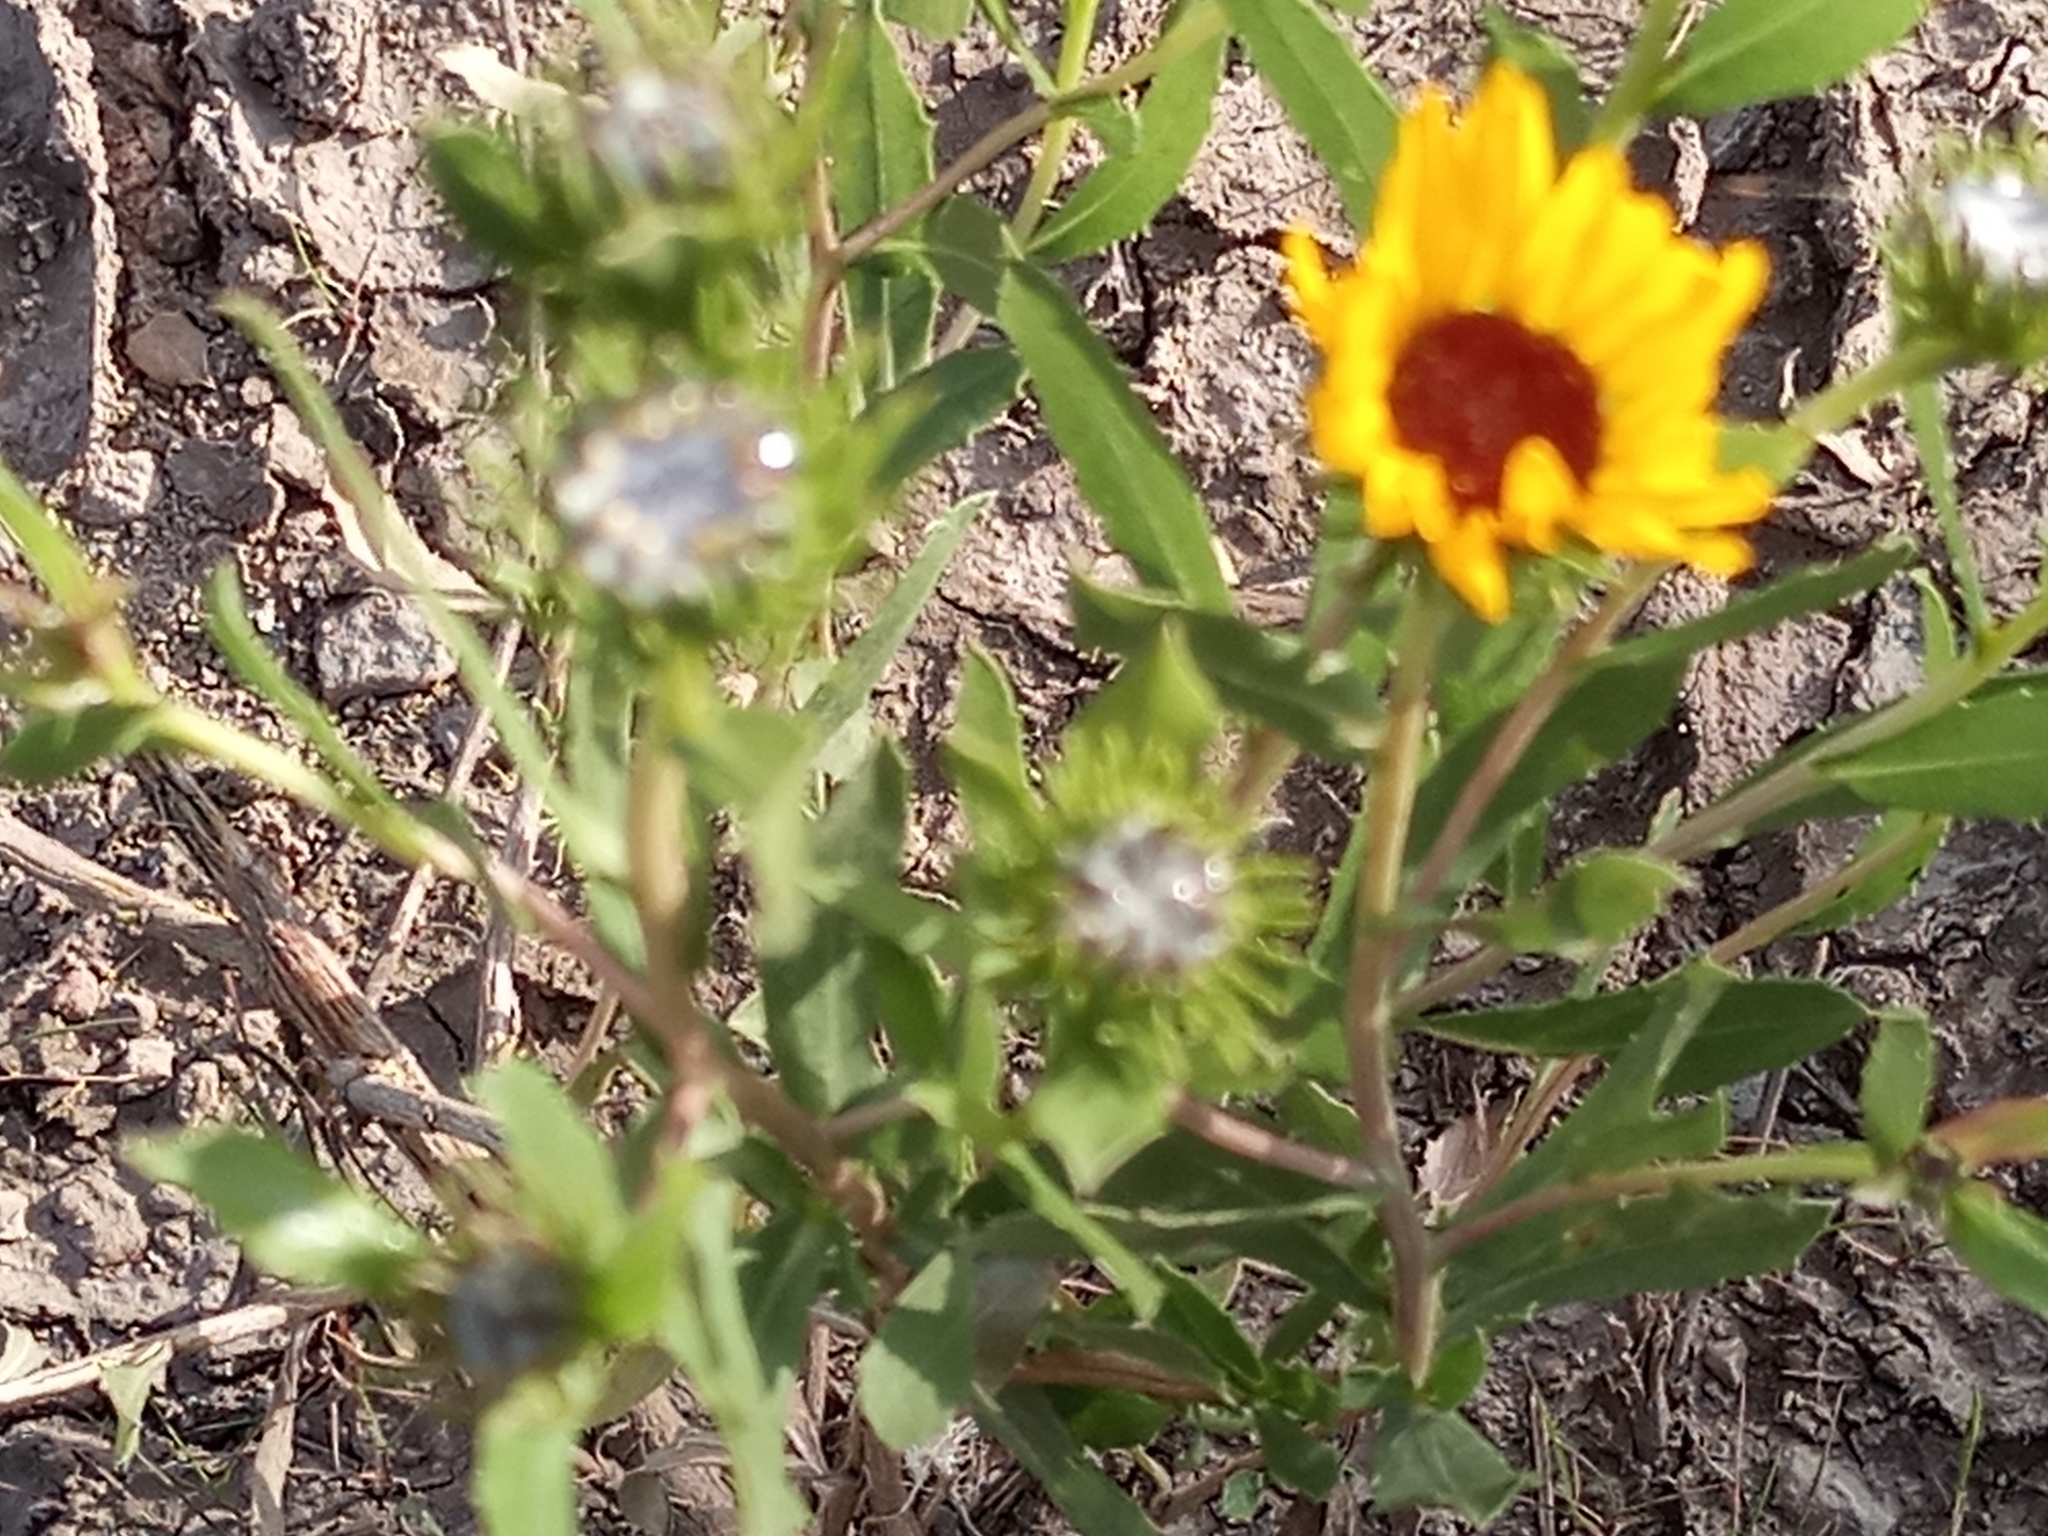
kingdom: Plantae
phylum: Tracheophyta
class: Magnoliopsida
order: Asterales
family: Asteraceae
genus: Grindelia
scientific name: Grindelia pulchella
